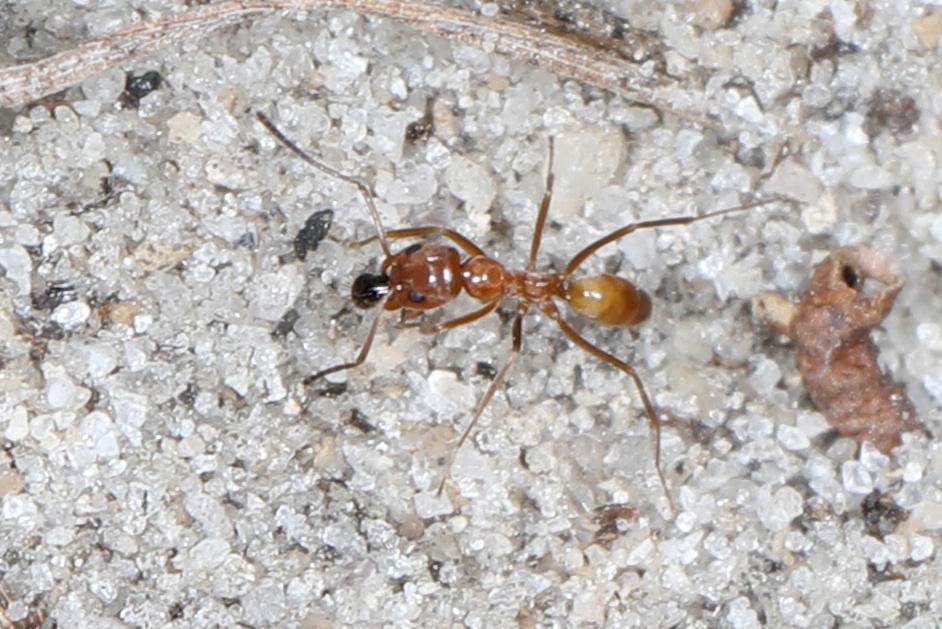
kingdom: Animalia
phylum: Arthropoda
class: Insecta
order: Hymenoptera
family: Formicidae
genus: Dorymyrmex
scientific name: Dorymyrmex bureni
